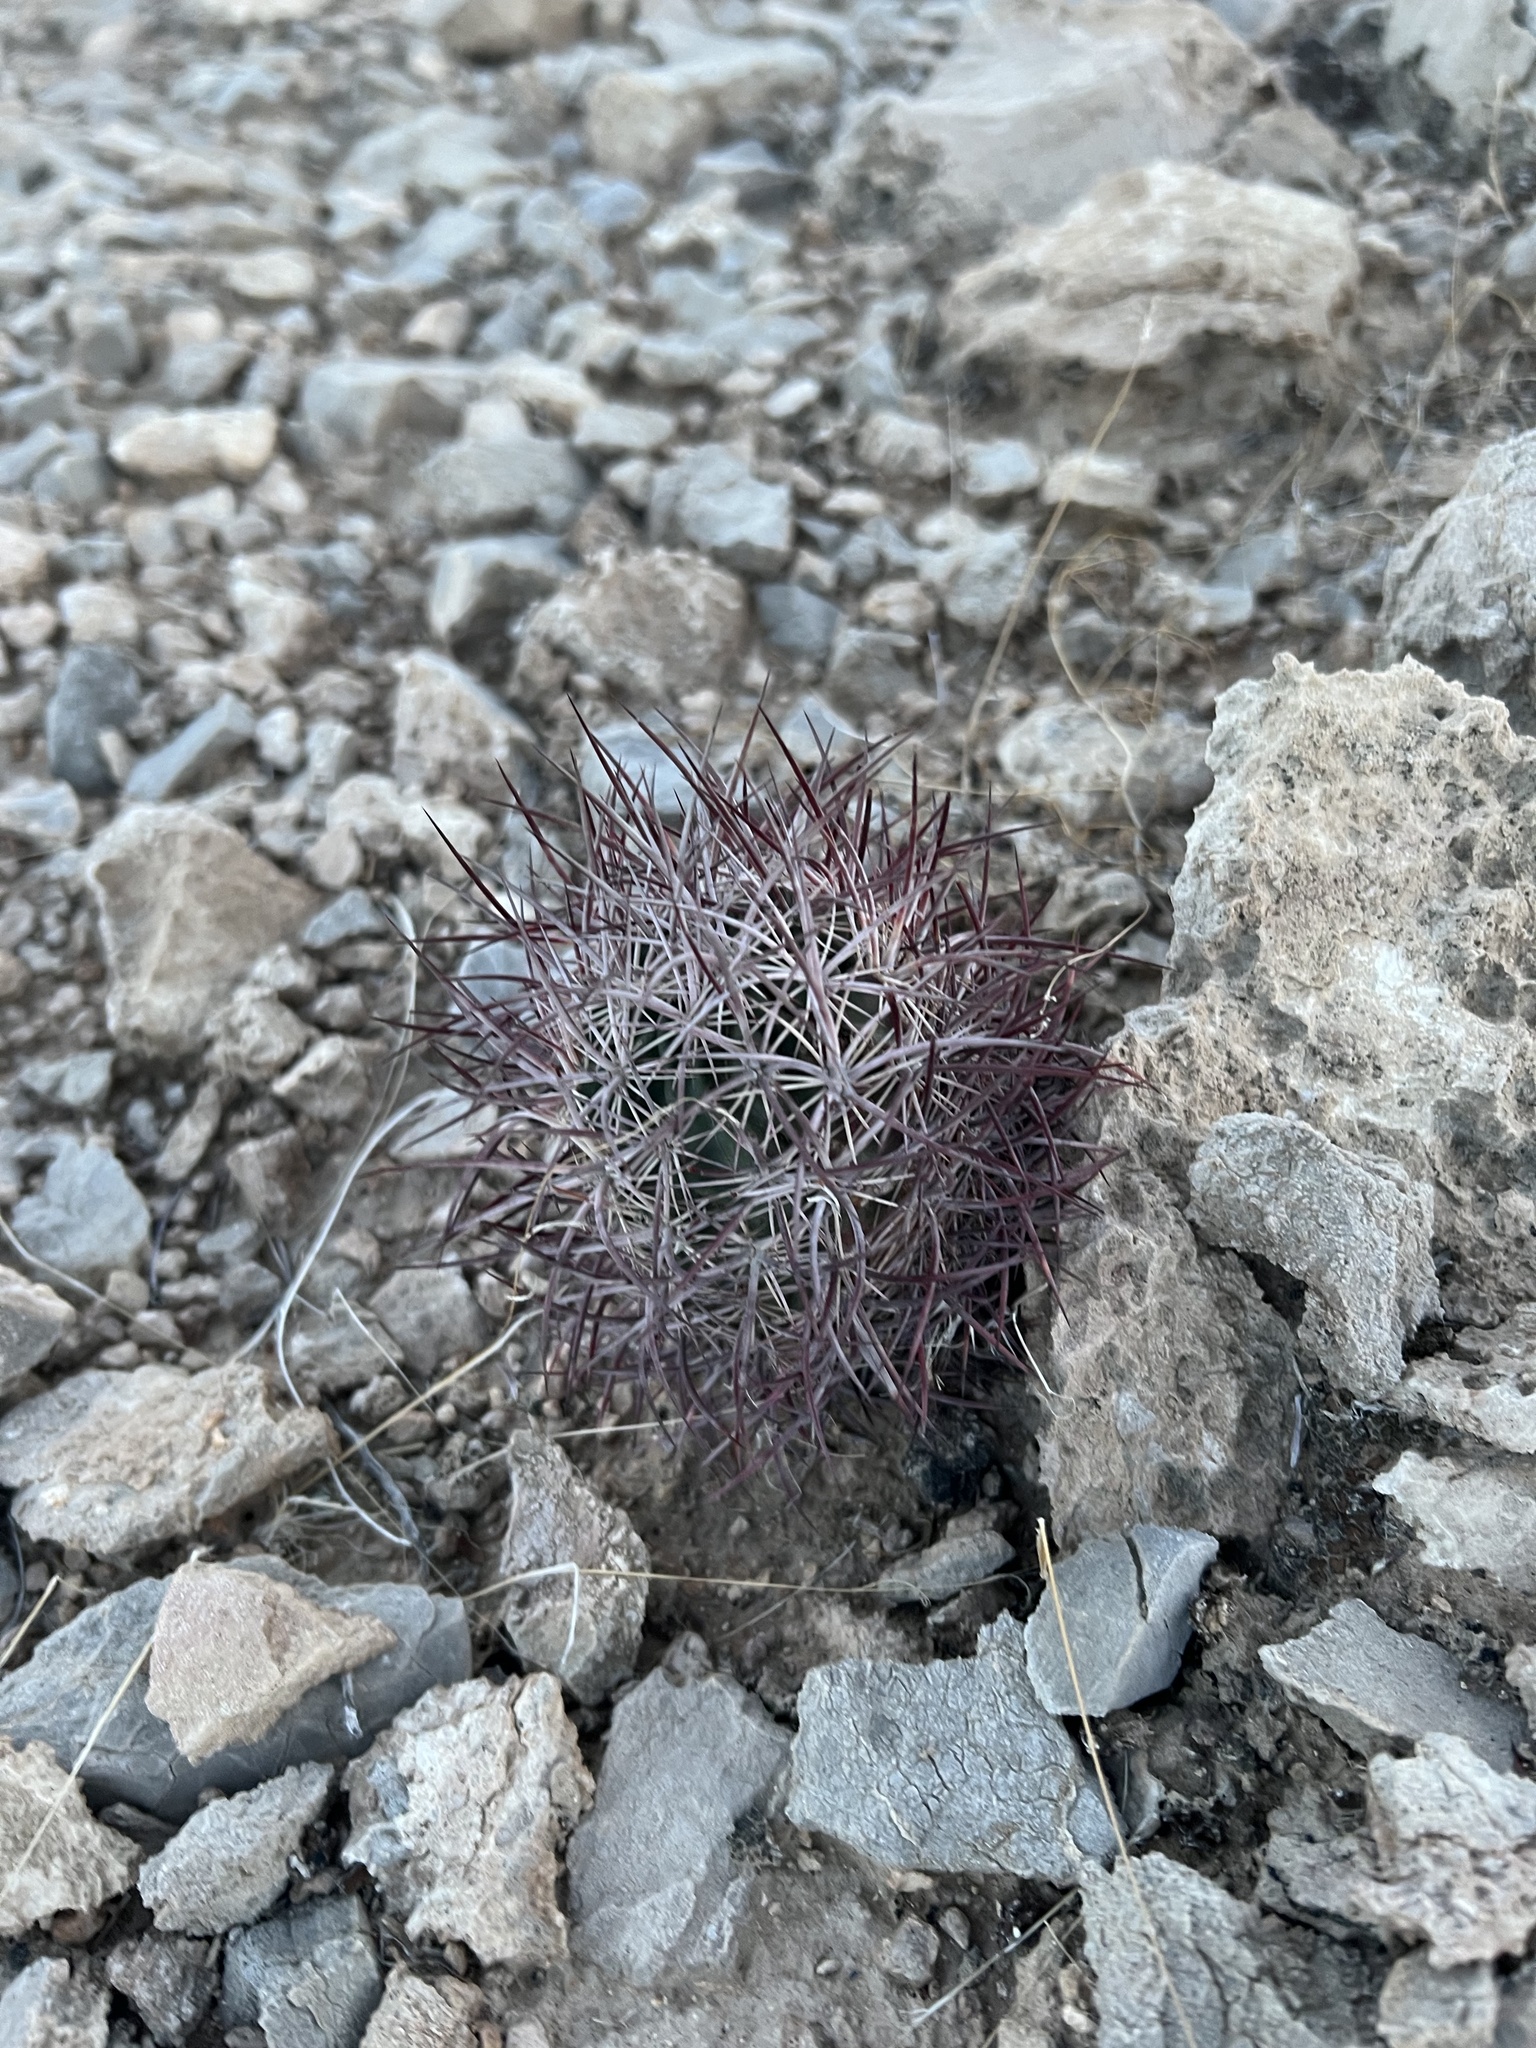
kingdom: Plantae
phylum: Tracheophyta
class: Magnoliopsida
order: Caryophyllales
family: Cactaceae
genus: Sclerocactus
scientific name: Sclerocactus johnsonii
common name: Eight-spine fishhook cactus
